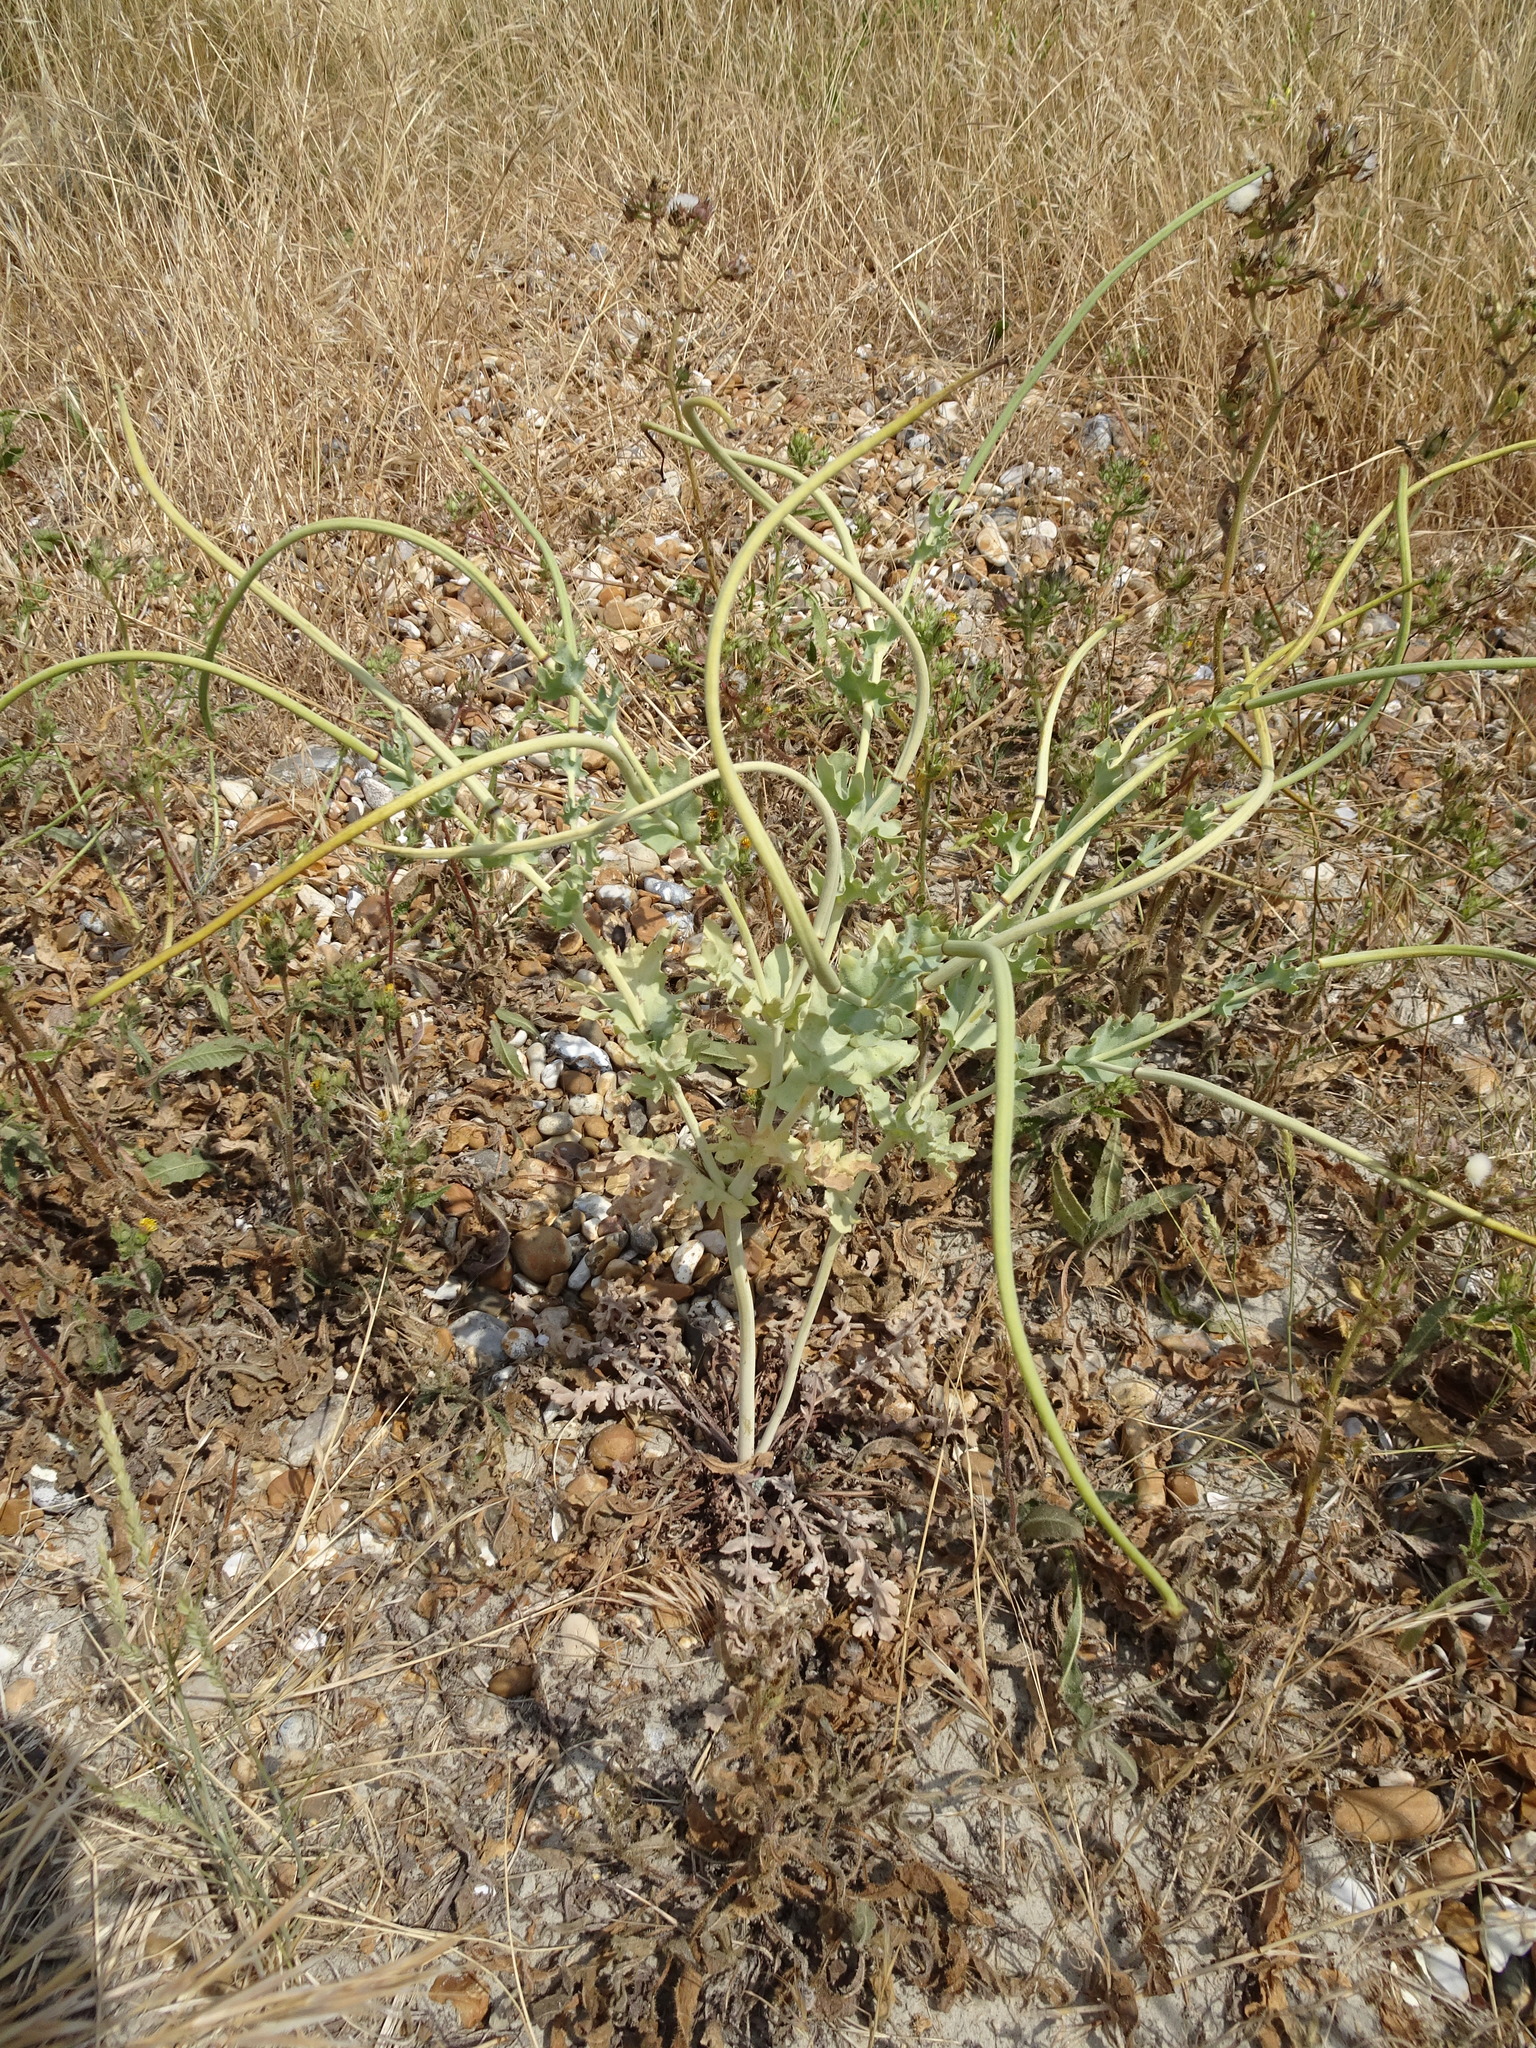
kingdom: Plantae
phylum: Tracheophyta
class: Magnoliopsida
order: Ranunculales
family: Papaveraceae
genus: Glaucium
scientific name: Glaucium flavum
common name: Yellow horned-poppy
